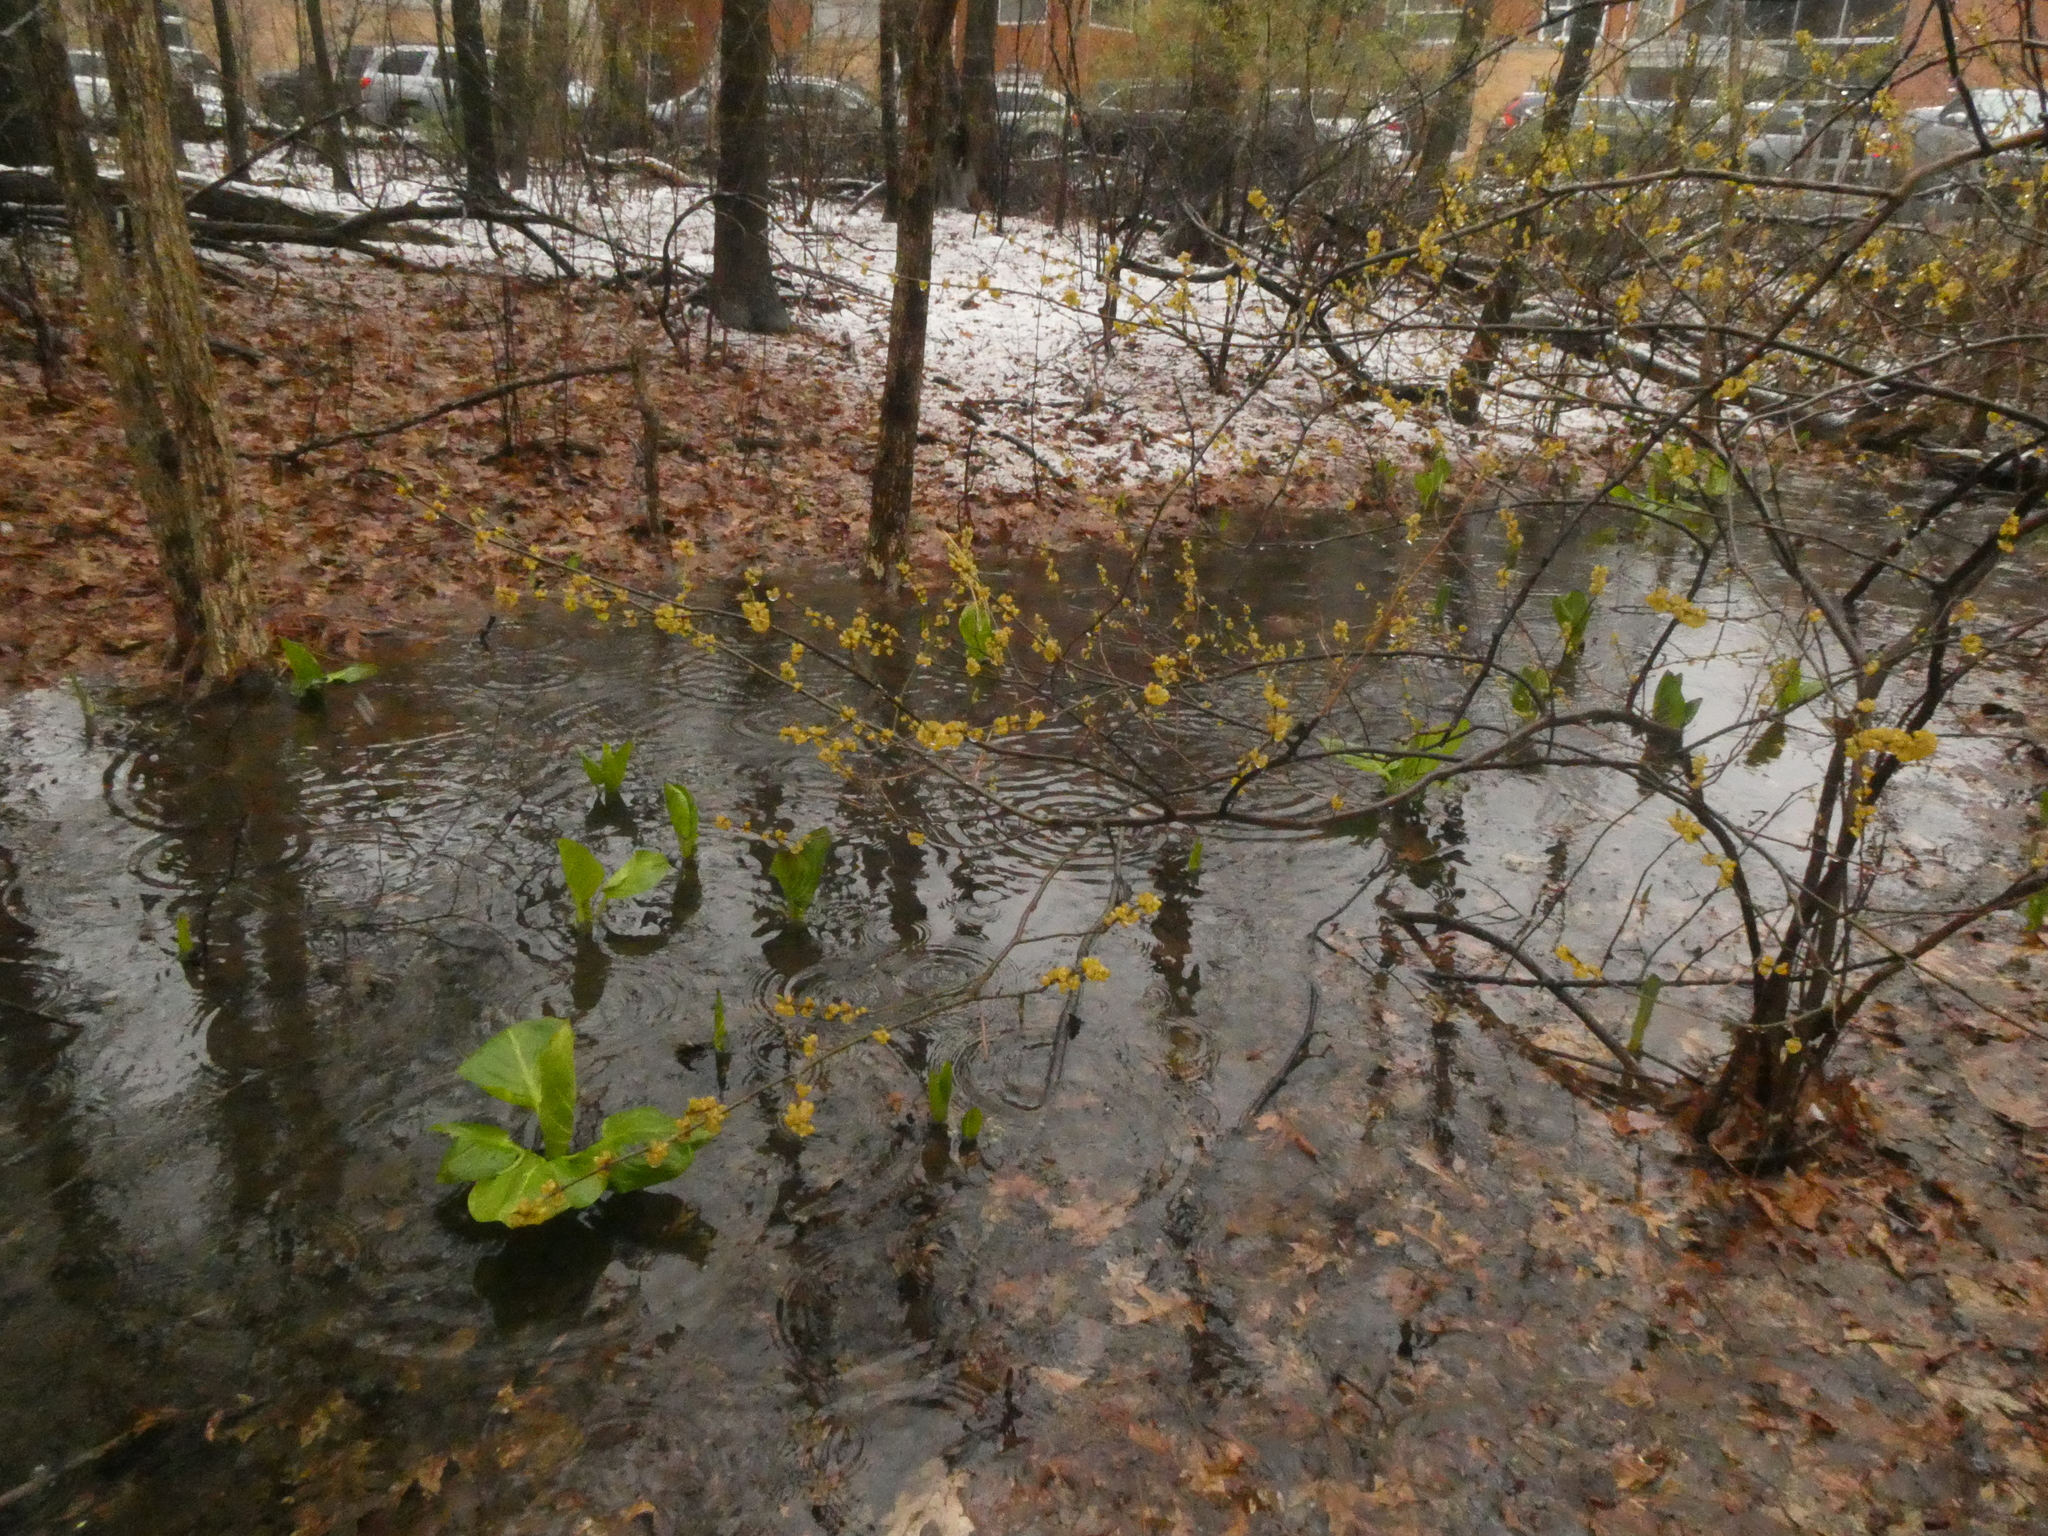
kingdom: Plantae
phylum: Tracheophyta
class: Magnoliopsida
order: Laurales
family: Lauraceae
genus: Lindera
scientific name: Lindera benzoin
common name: Spicebush
